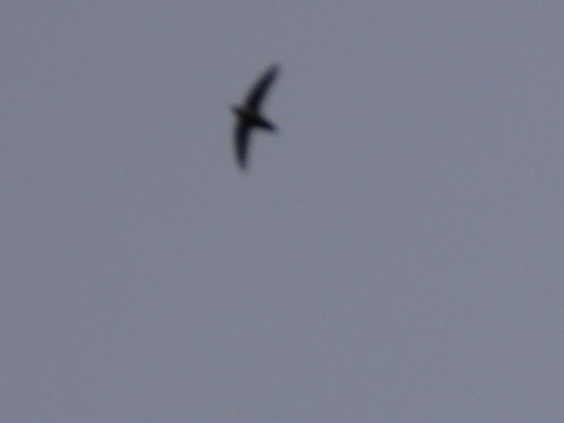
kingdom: Animalia
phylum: Chordata
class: Aves
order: Apodiformes
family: Apodidae
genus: Chaetura
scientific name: Chaetura vauxi
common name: Vaux's swift
